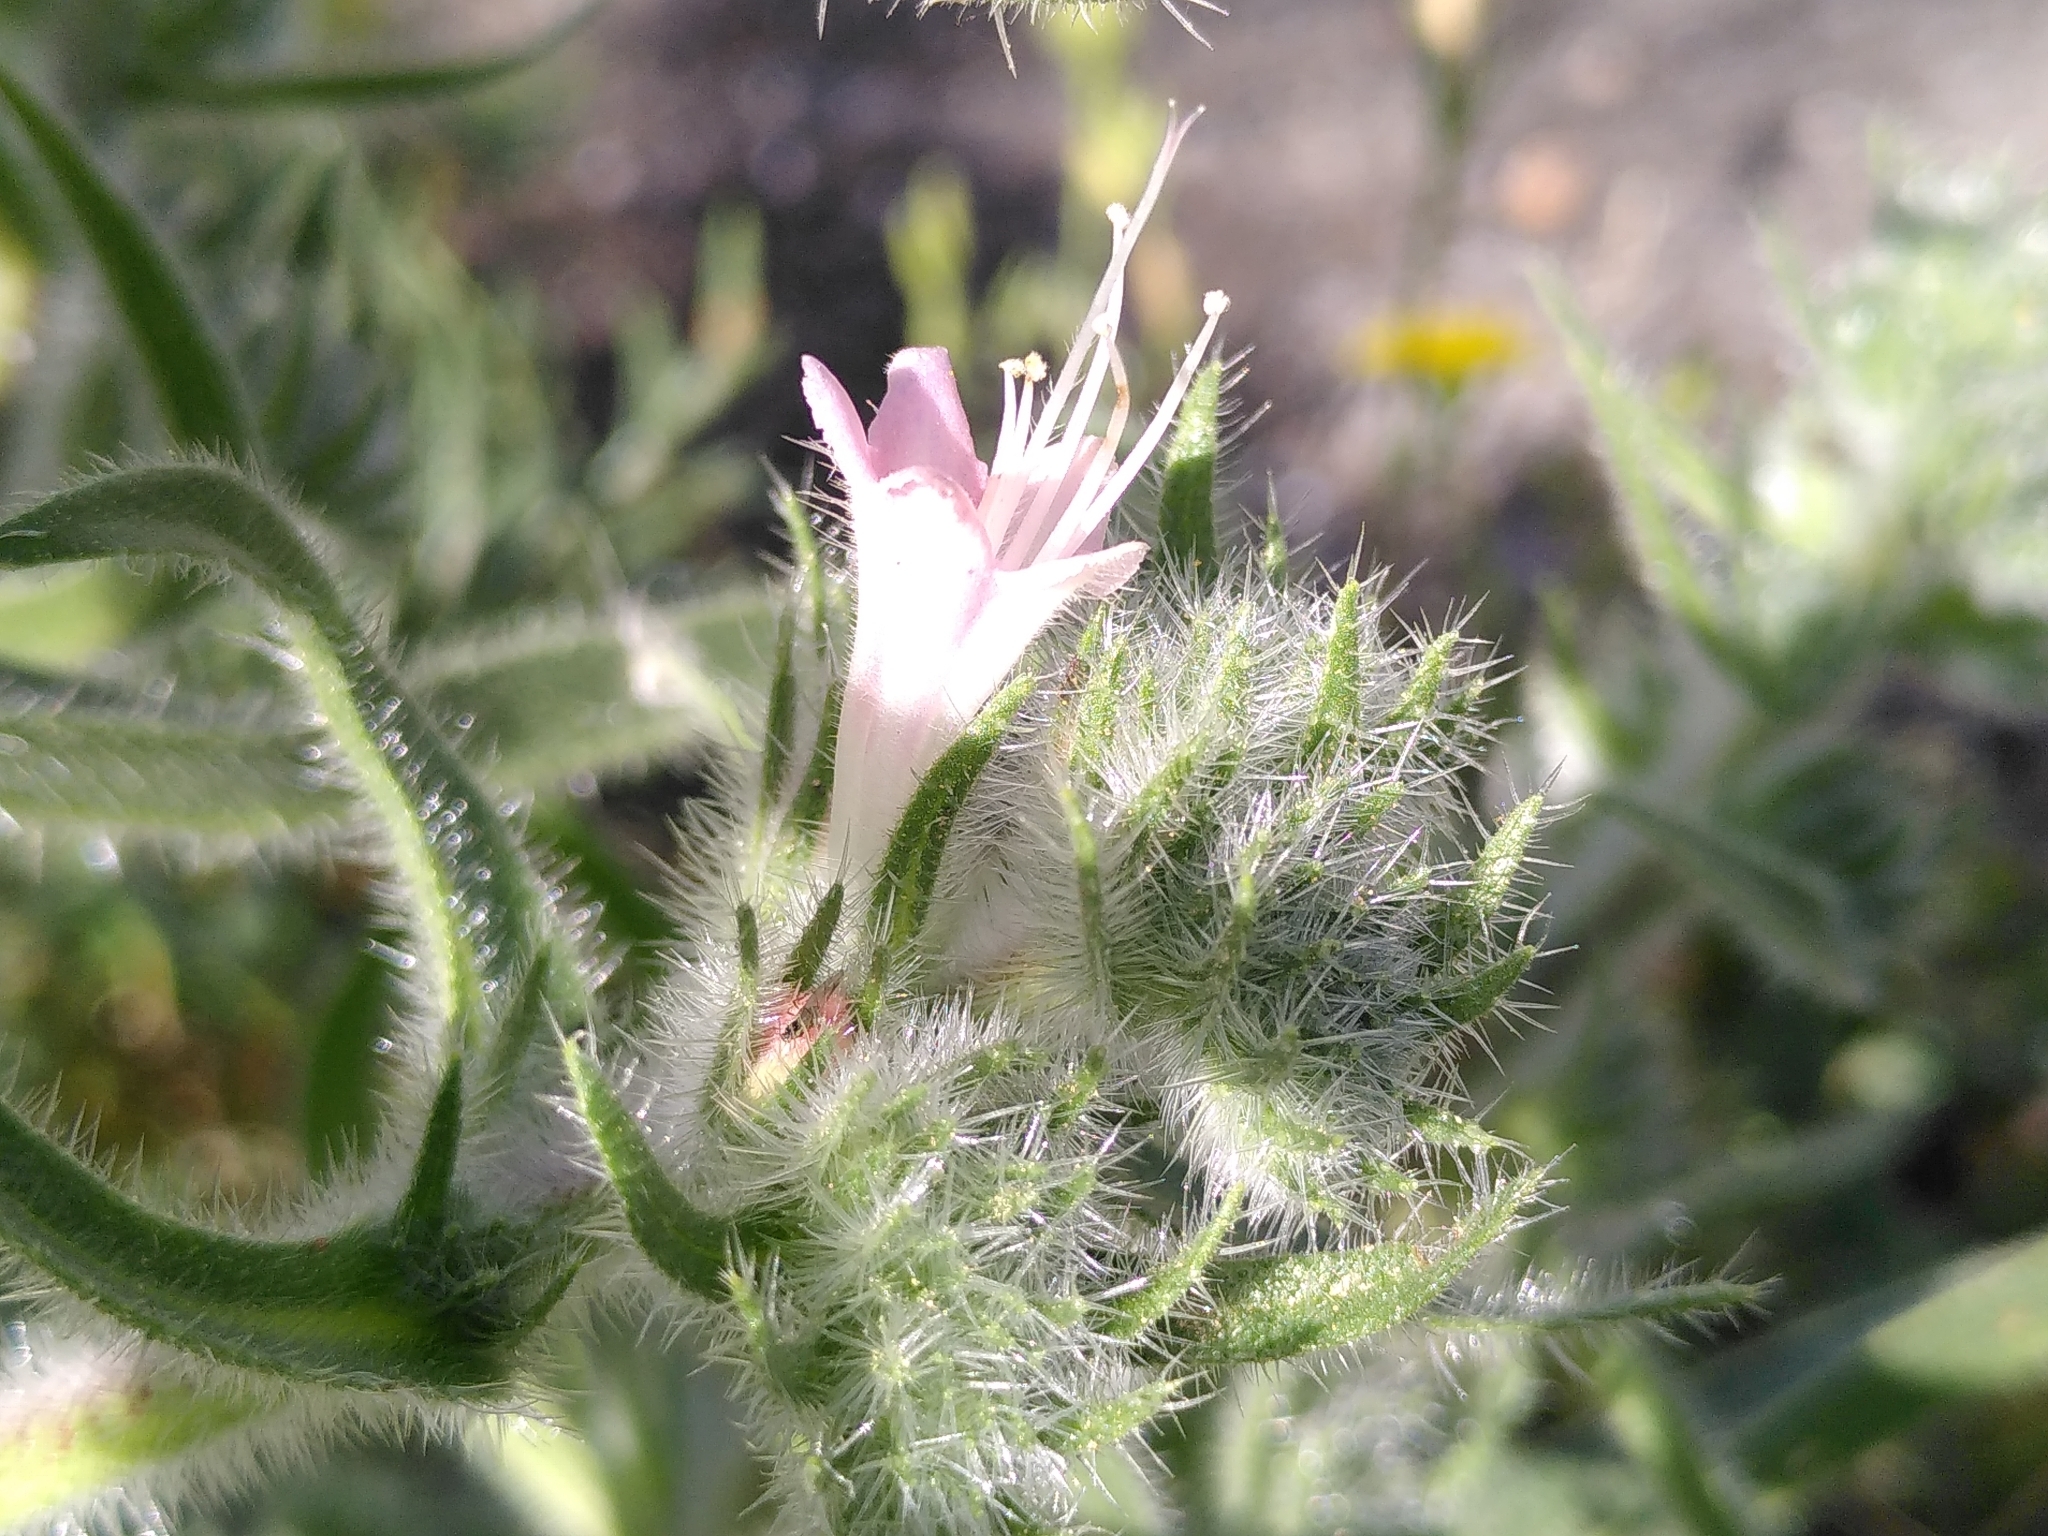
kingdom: Plantae
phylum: Tracheophyta
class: Magnoliopsida
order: Boraginales
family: Boraginaceae
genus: Echium
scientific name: Echium italicum
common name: Italian viper's bugloss
